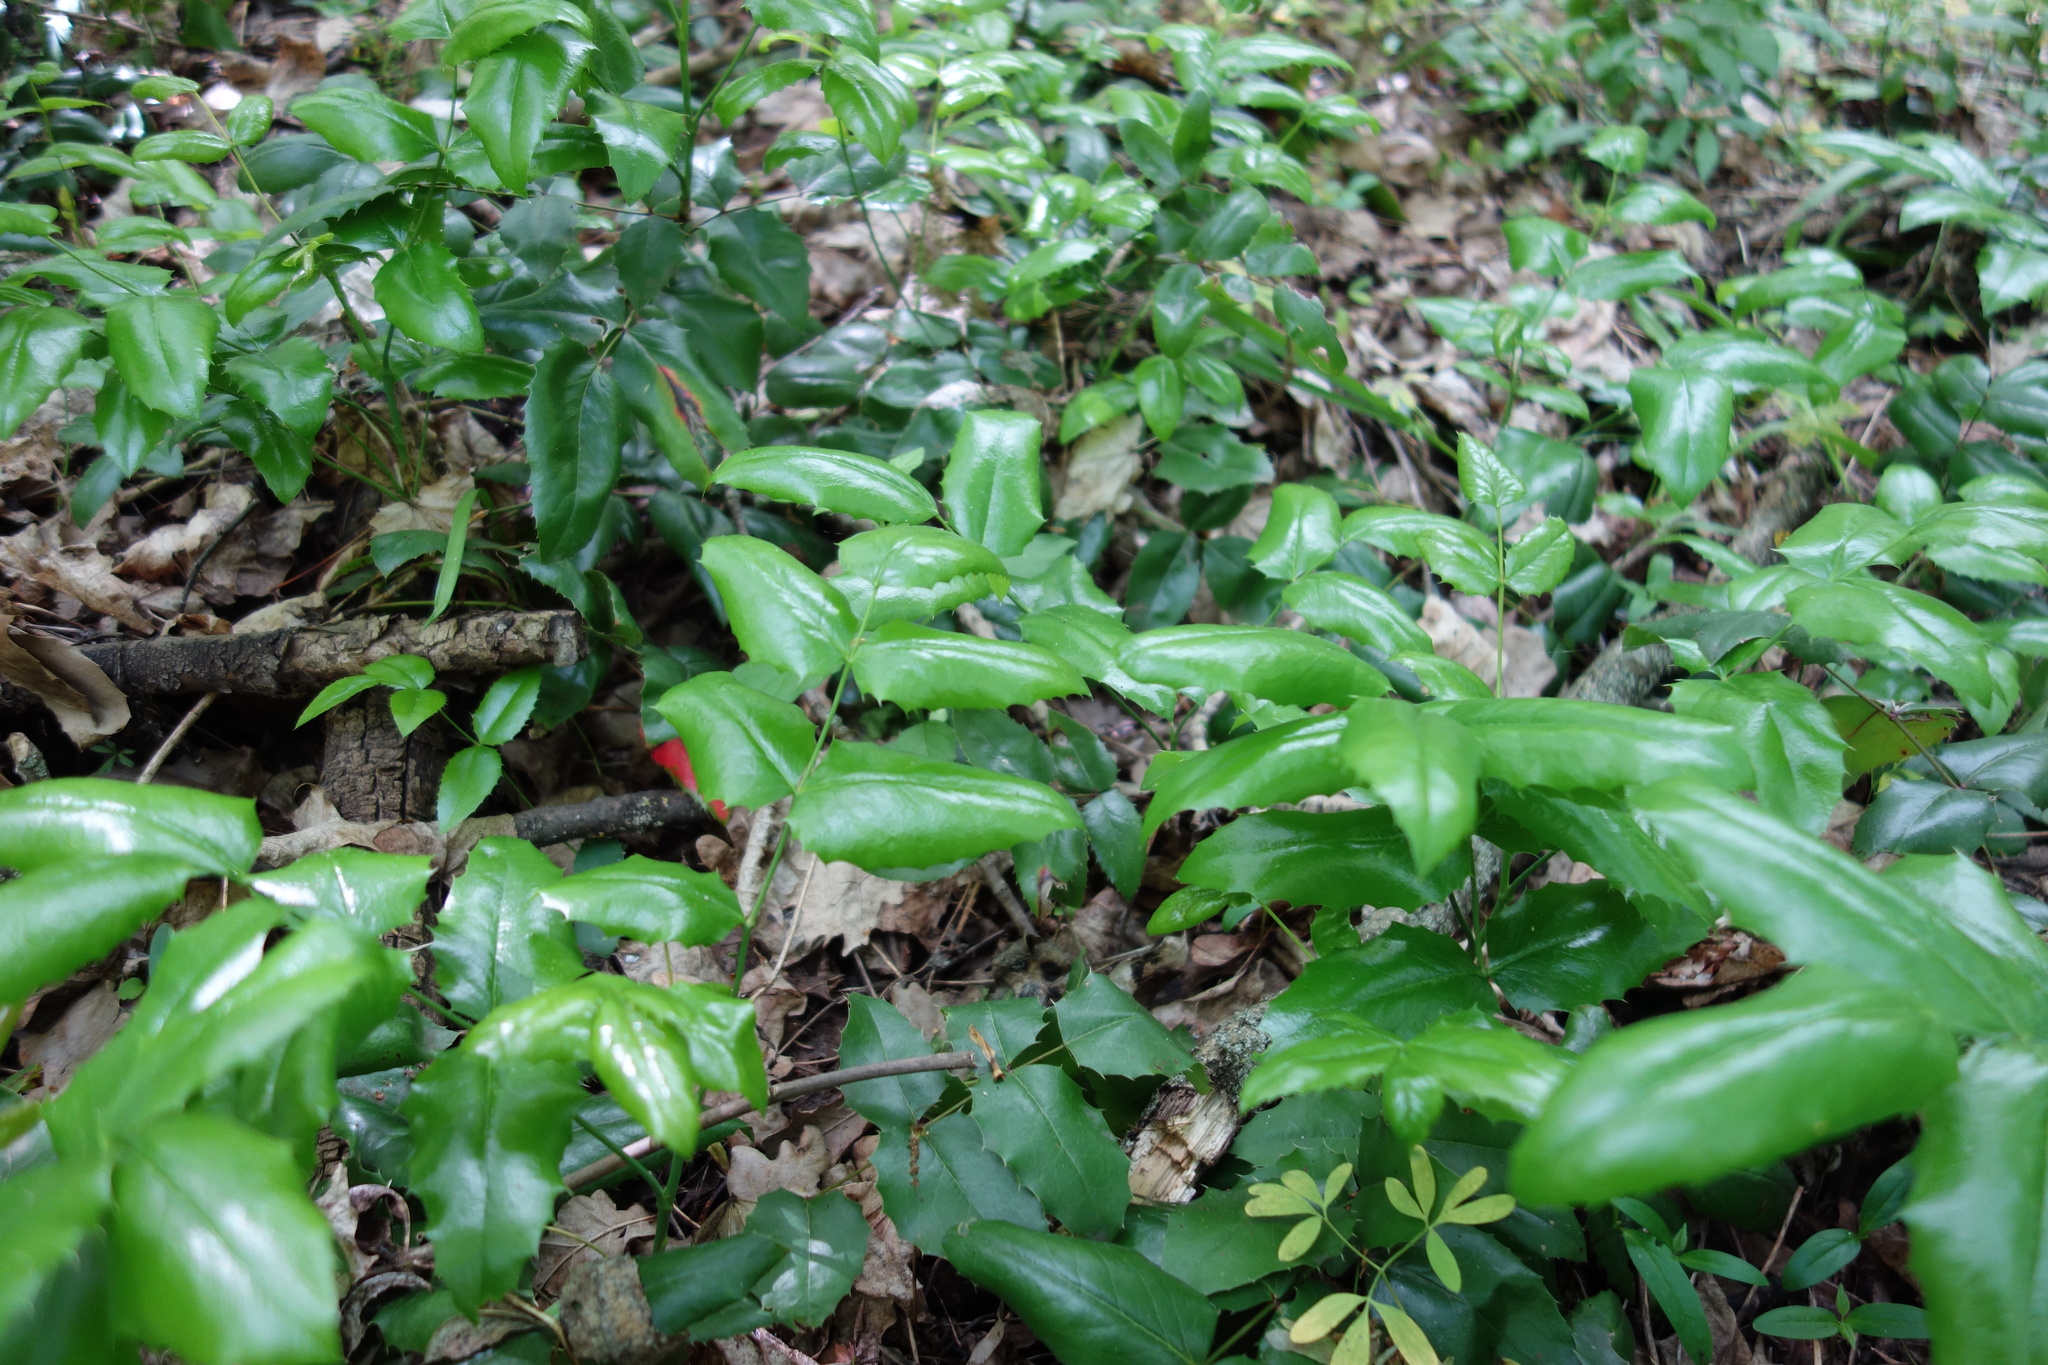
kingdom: Plantae
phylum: Tracheophyta
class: Magnoliopsida
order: Ranunculales
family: Berberidaceae
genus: Mahonia
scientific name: Mahonia aquifolium
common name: Oregon-grape
